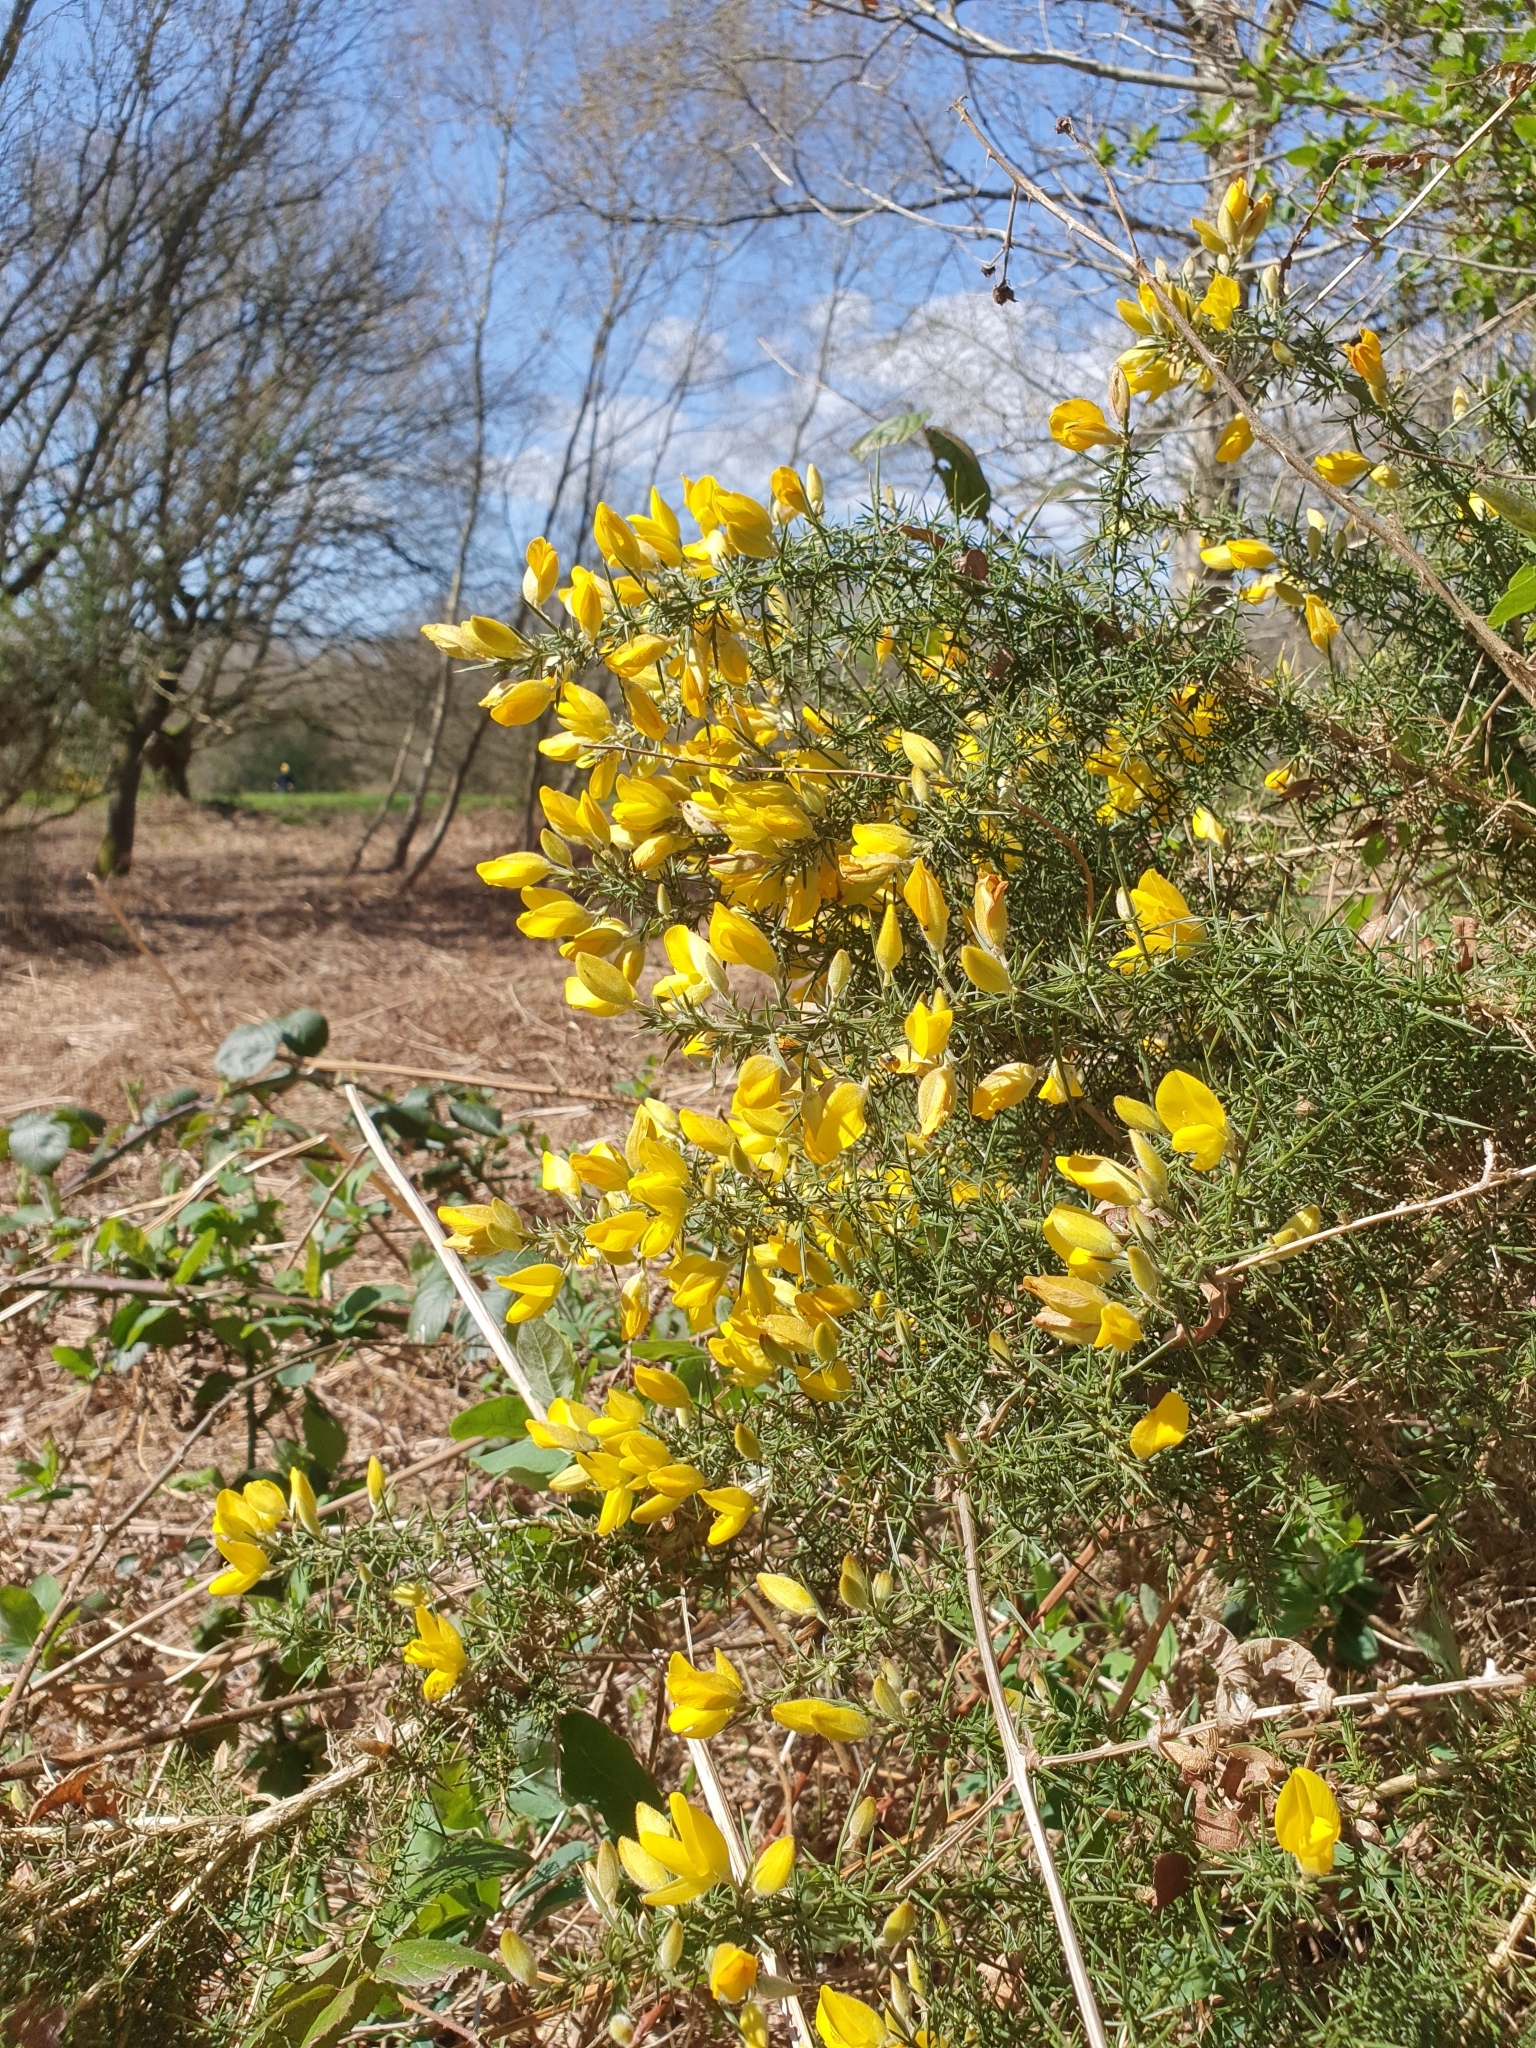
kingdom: Plantae
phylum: Tracheophyta
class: Magnoliopsida
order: Fabales
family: Fabaceae
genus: Ulex
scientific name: Ulex europaeus
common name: Common gorse
